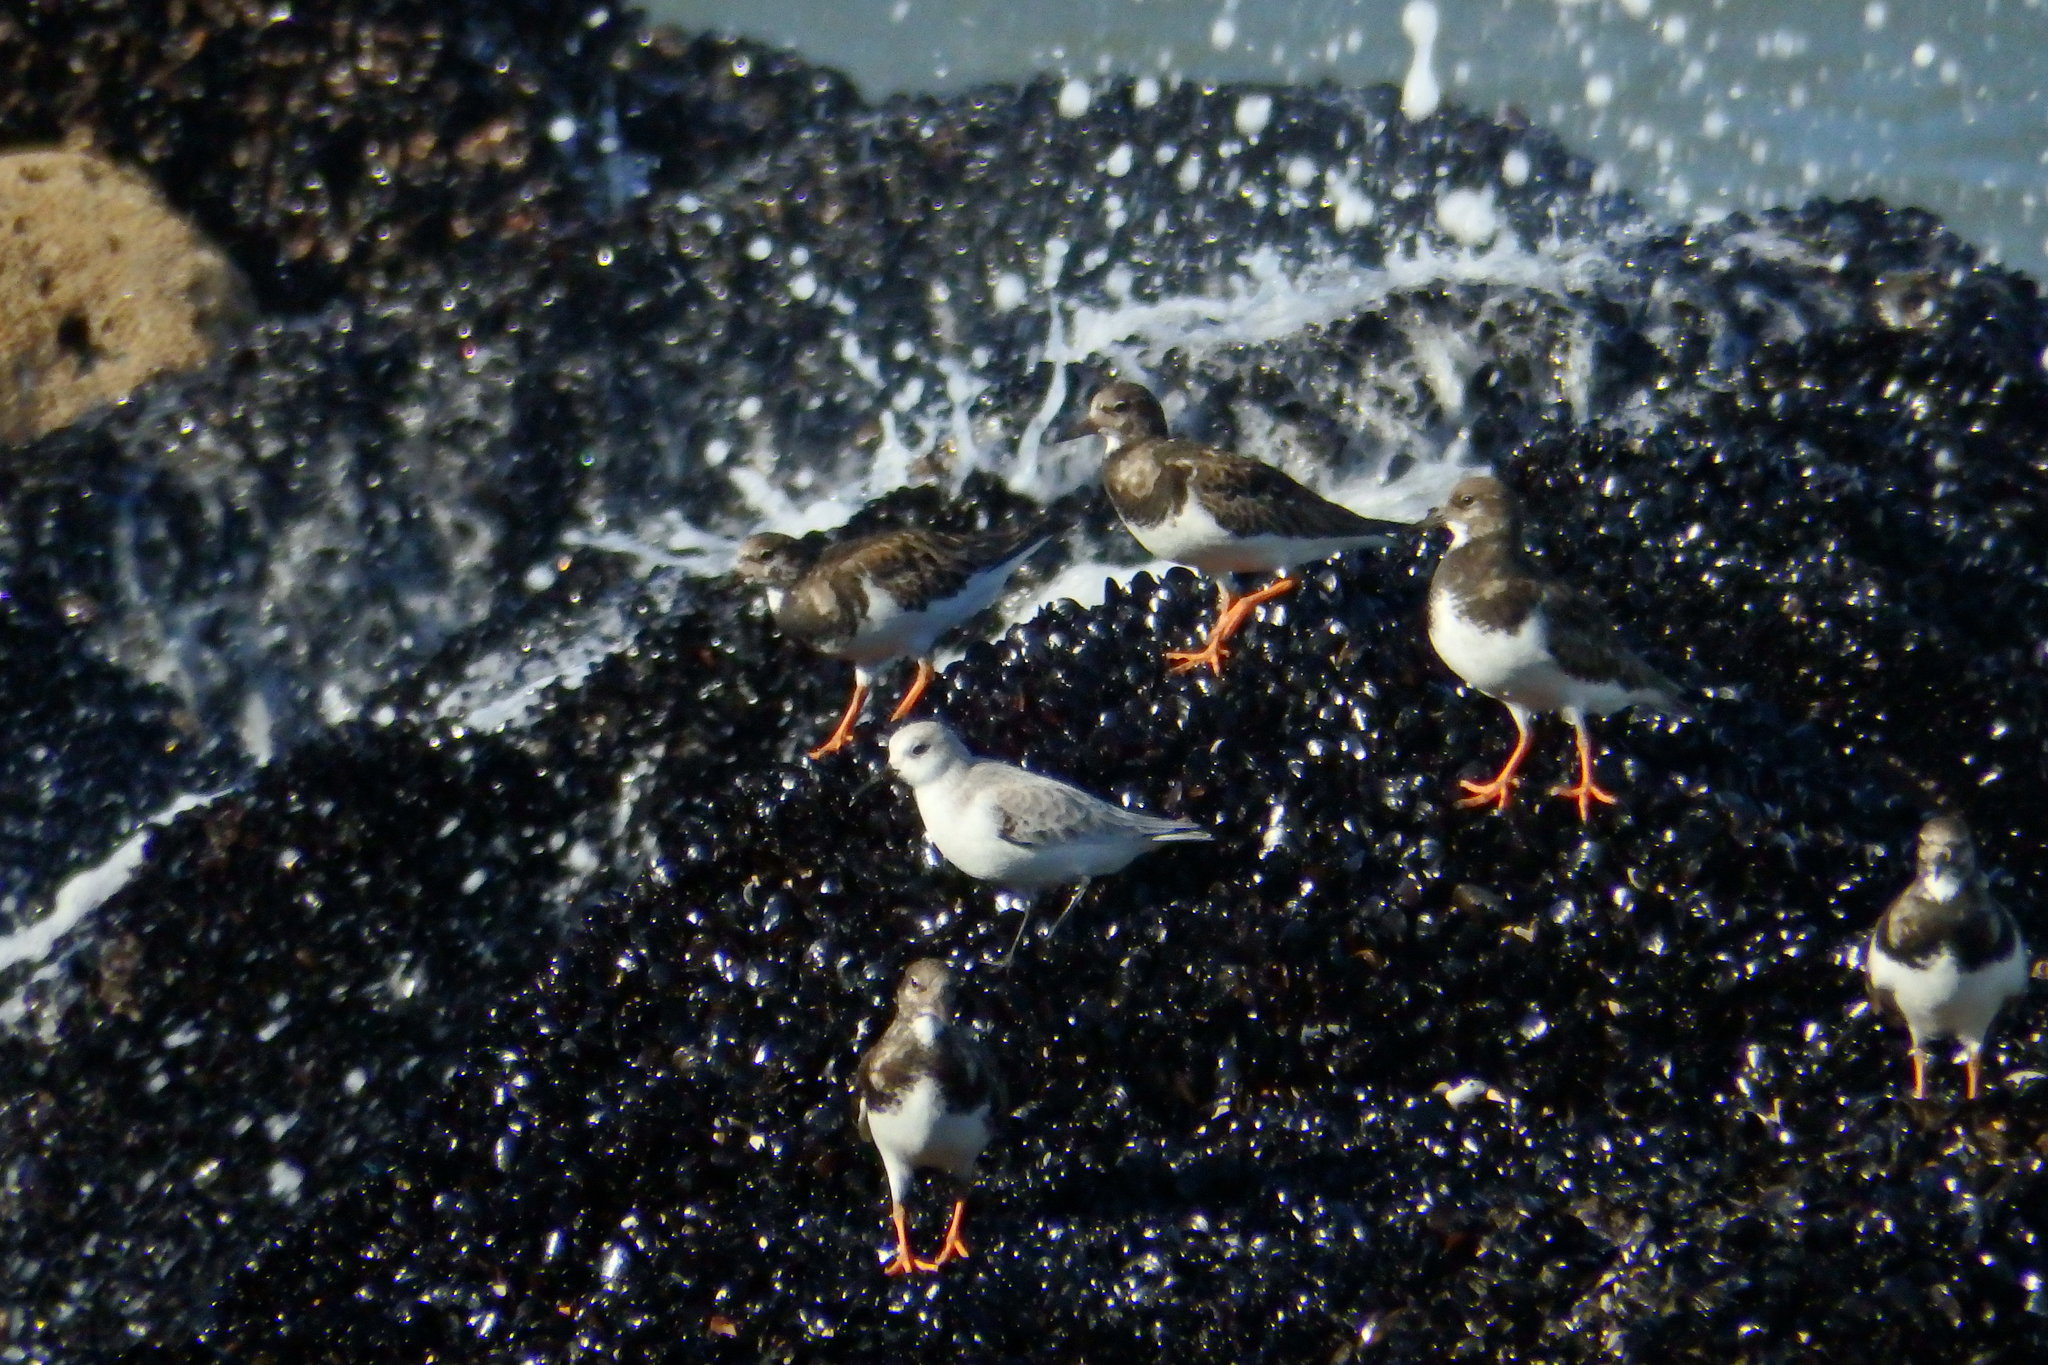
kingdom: Animalia
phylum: Chordata
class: Aves
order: Charadriiformes
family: Scolopacidae
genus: Arenaria
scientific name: Arenaria interpres
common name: Ruddy turnstone
